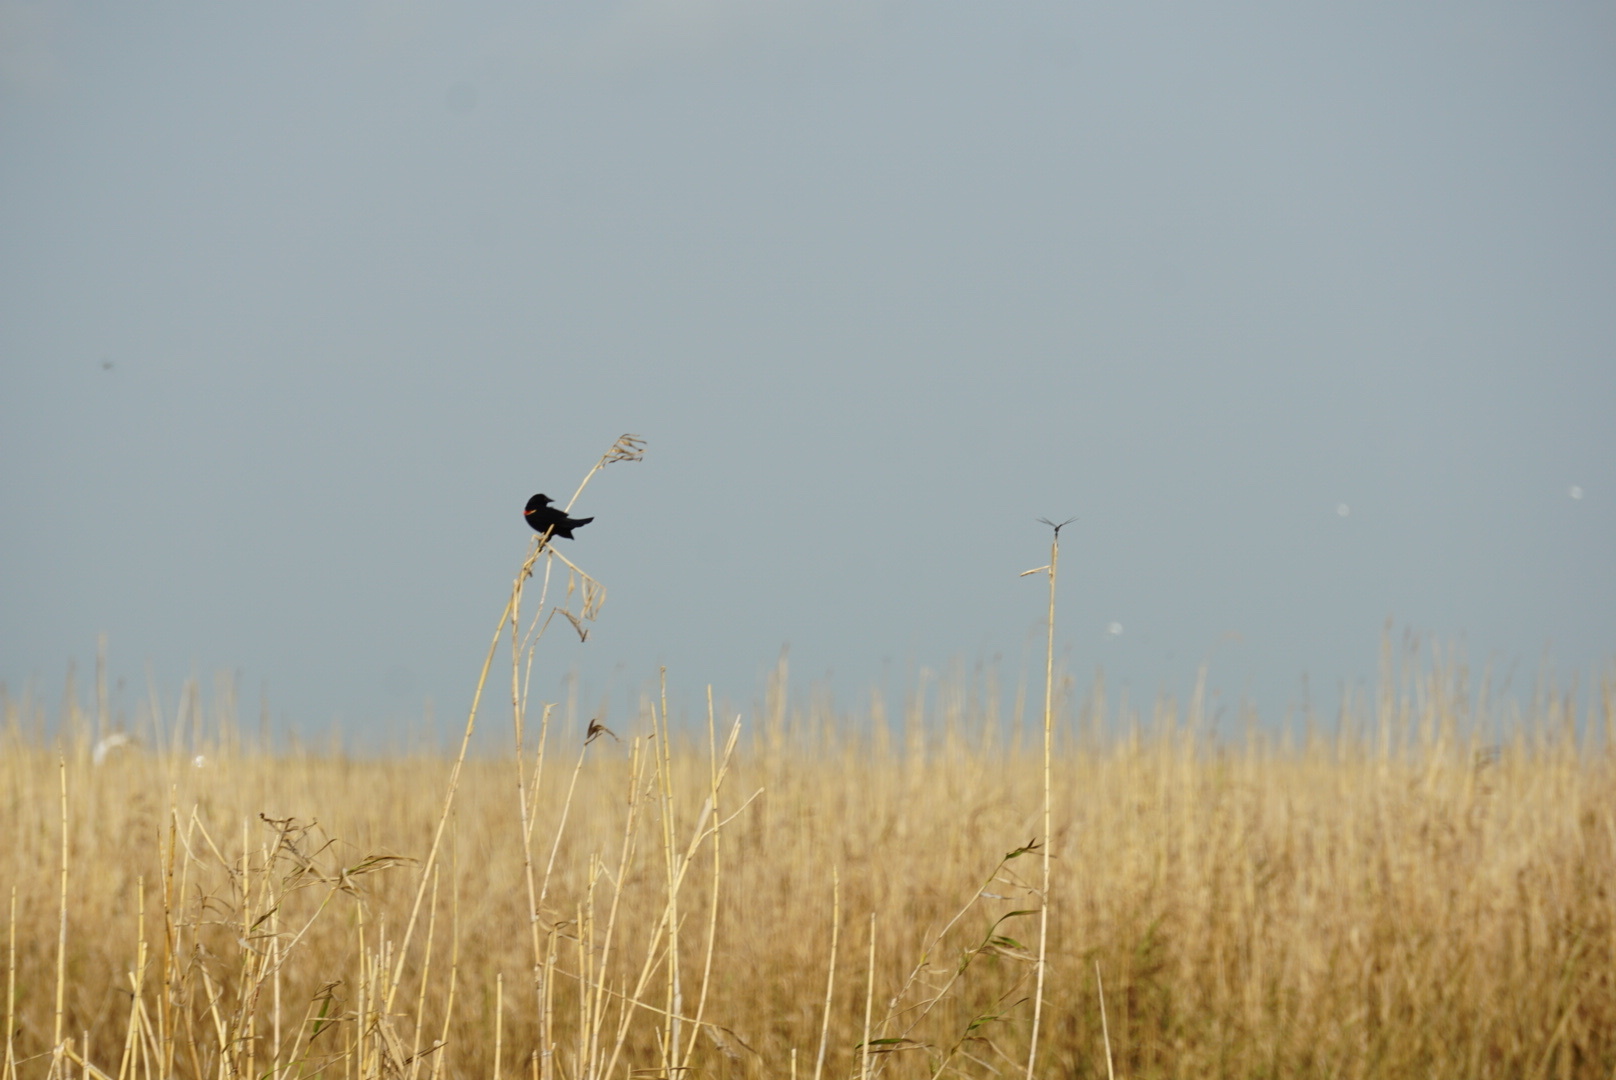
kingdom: Animalia
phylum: Chordata
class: Aves
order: Passeriformes
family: Icteridae
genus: Agelaius
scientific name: Agelaius phoeniceus
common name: Red-winged blackbird
